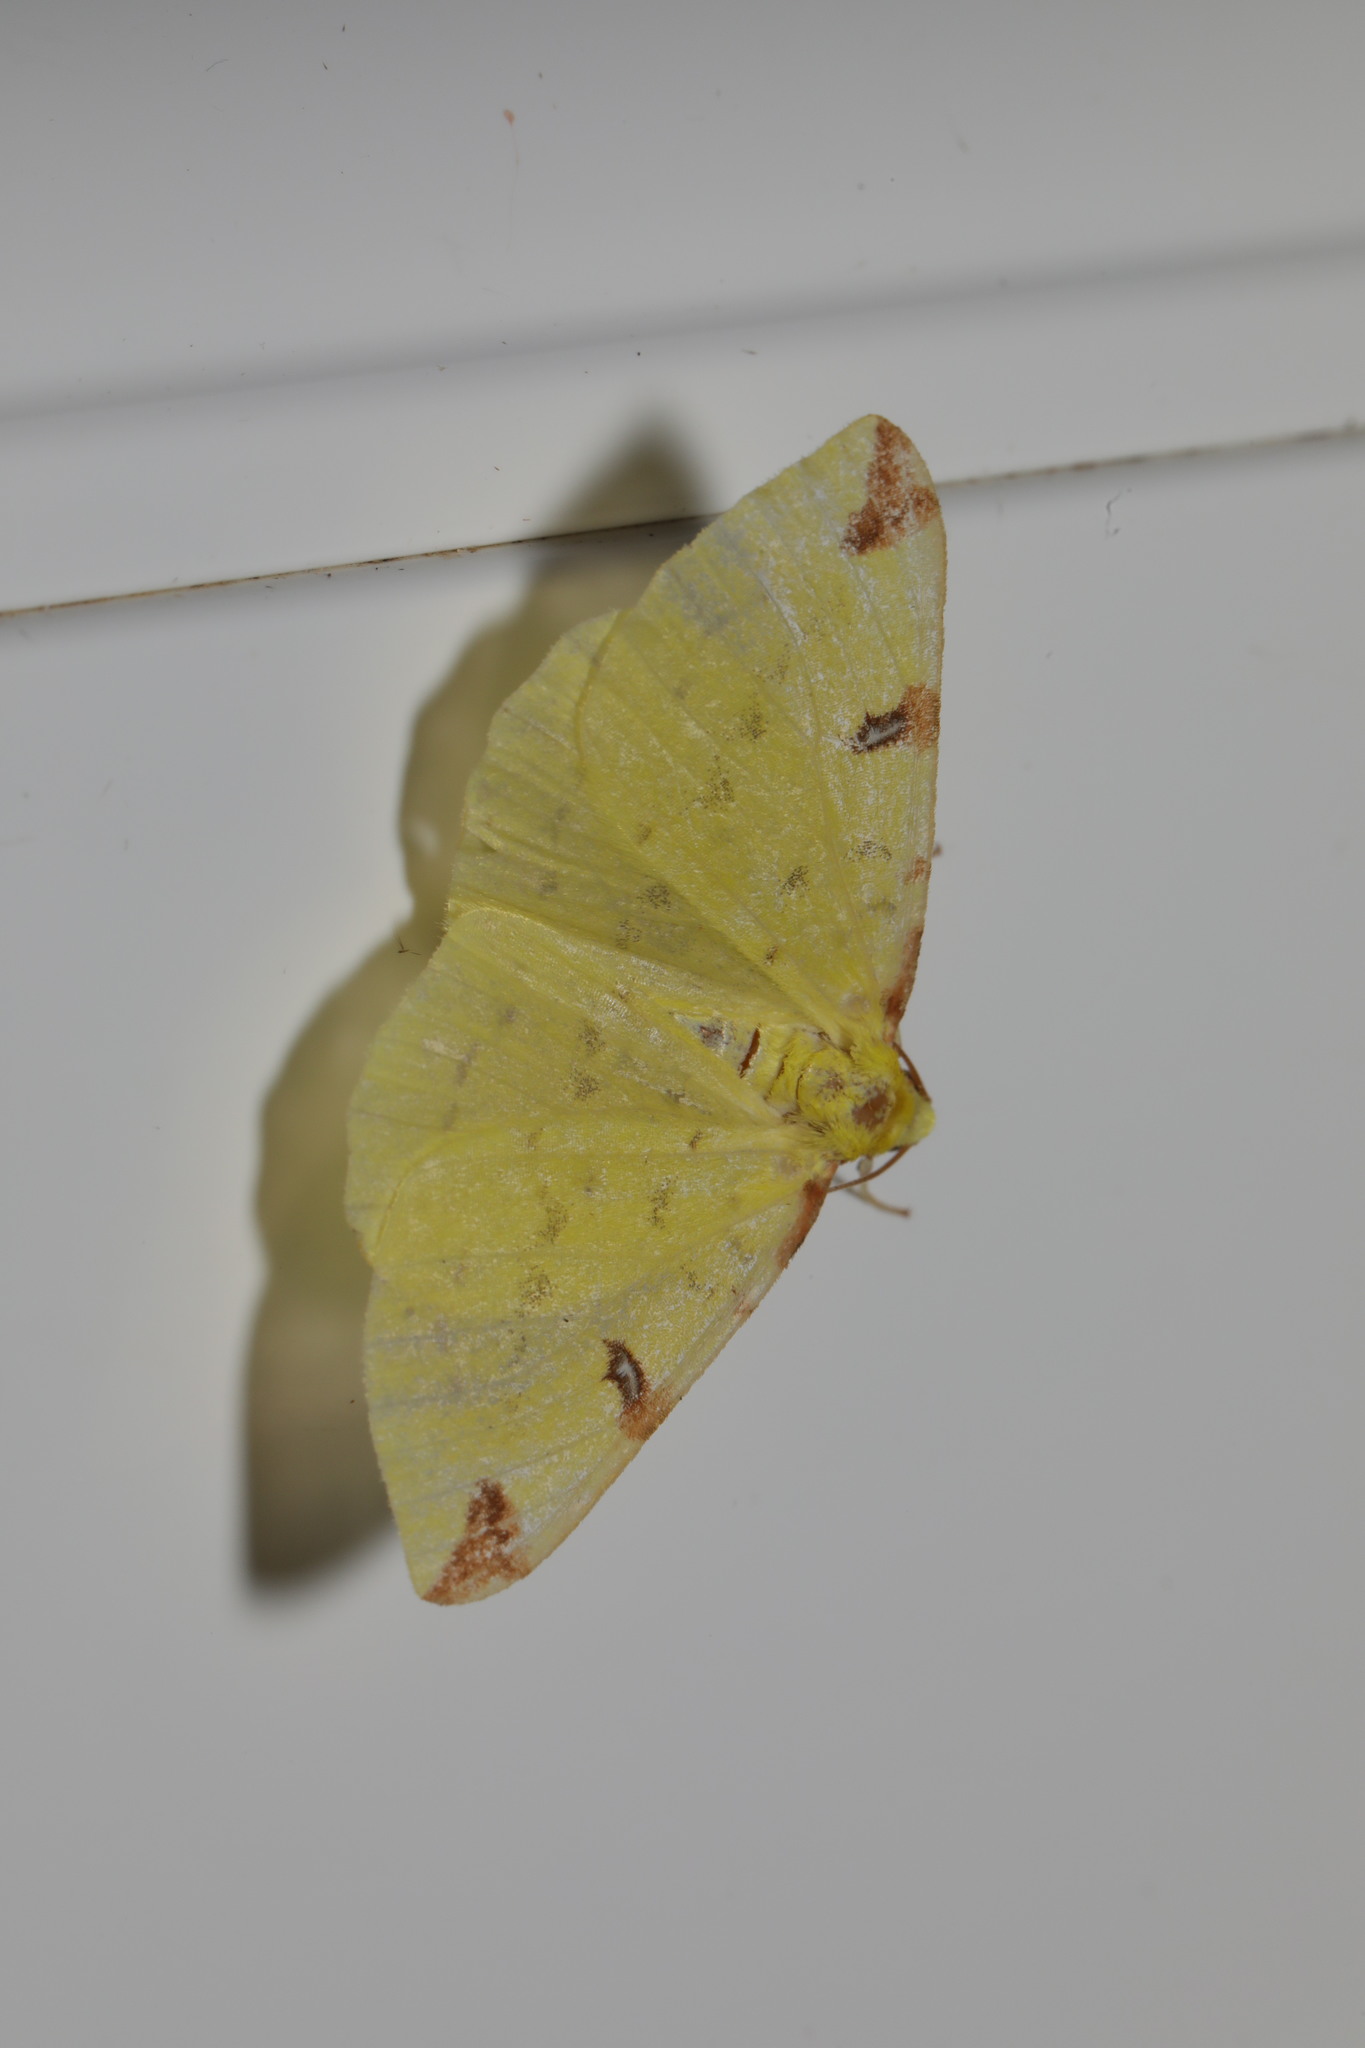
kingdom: Animalia
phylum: Arthropoda
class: Insecta
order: Lepidoptera
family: Geometridae
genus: Opisthograptis
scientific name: Opisthograptis luteolata
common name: Brimstone moth
